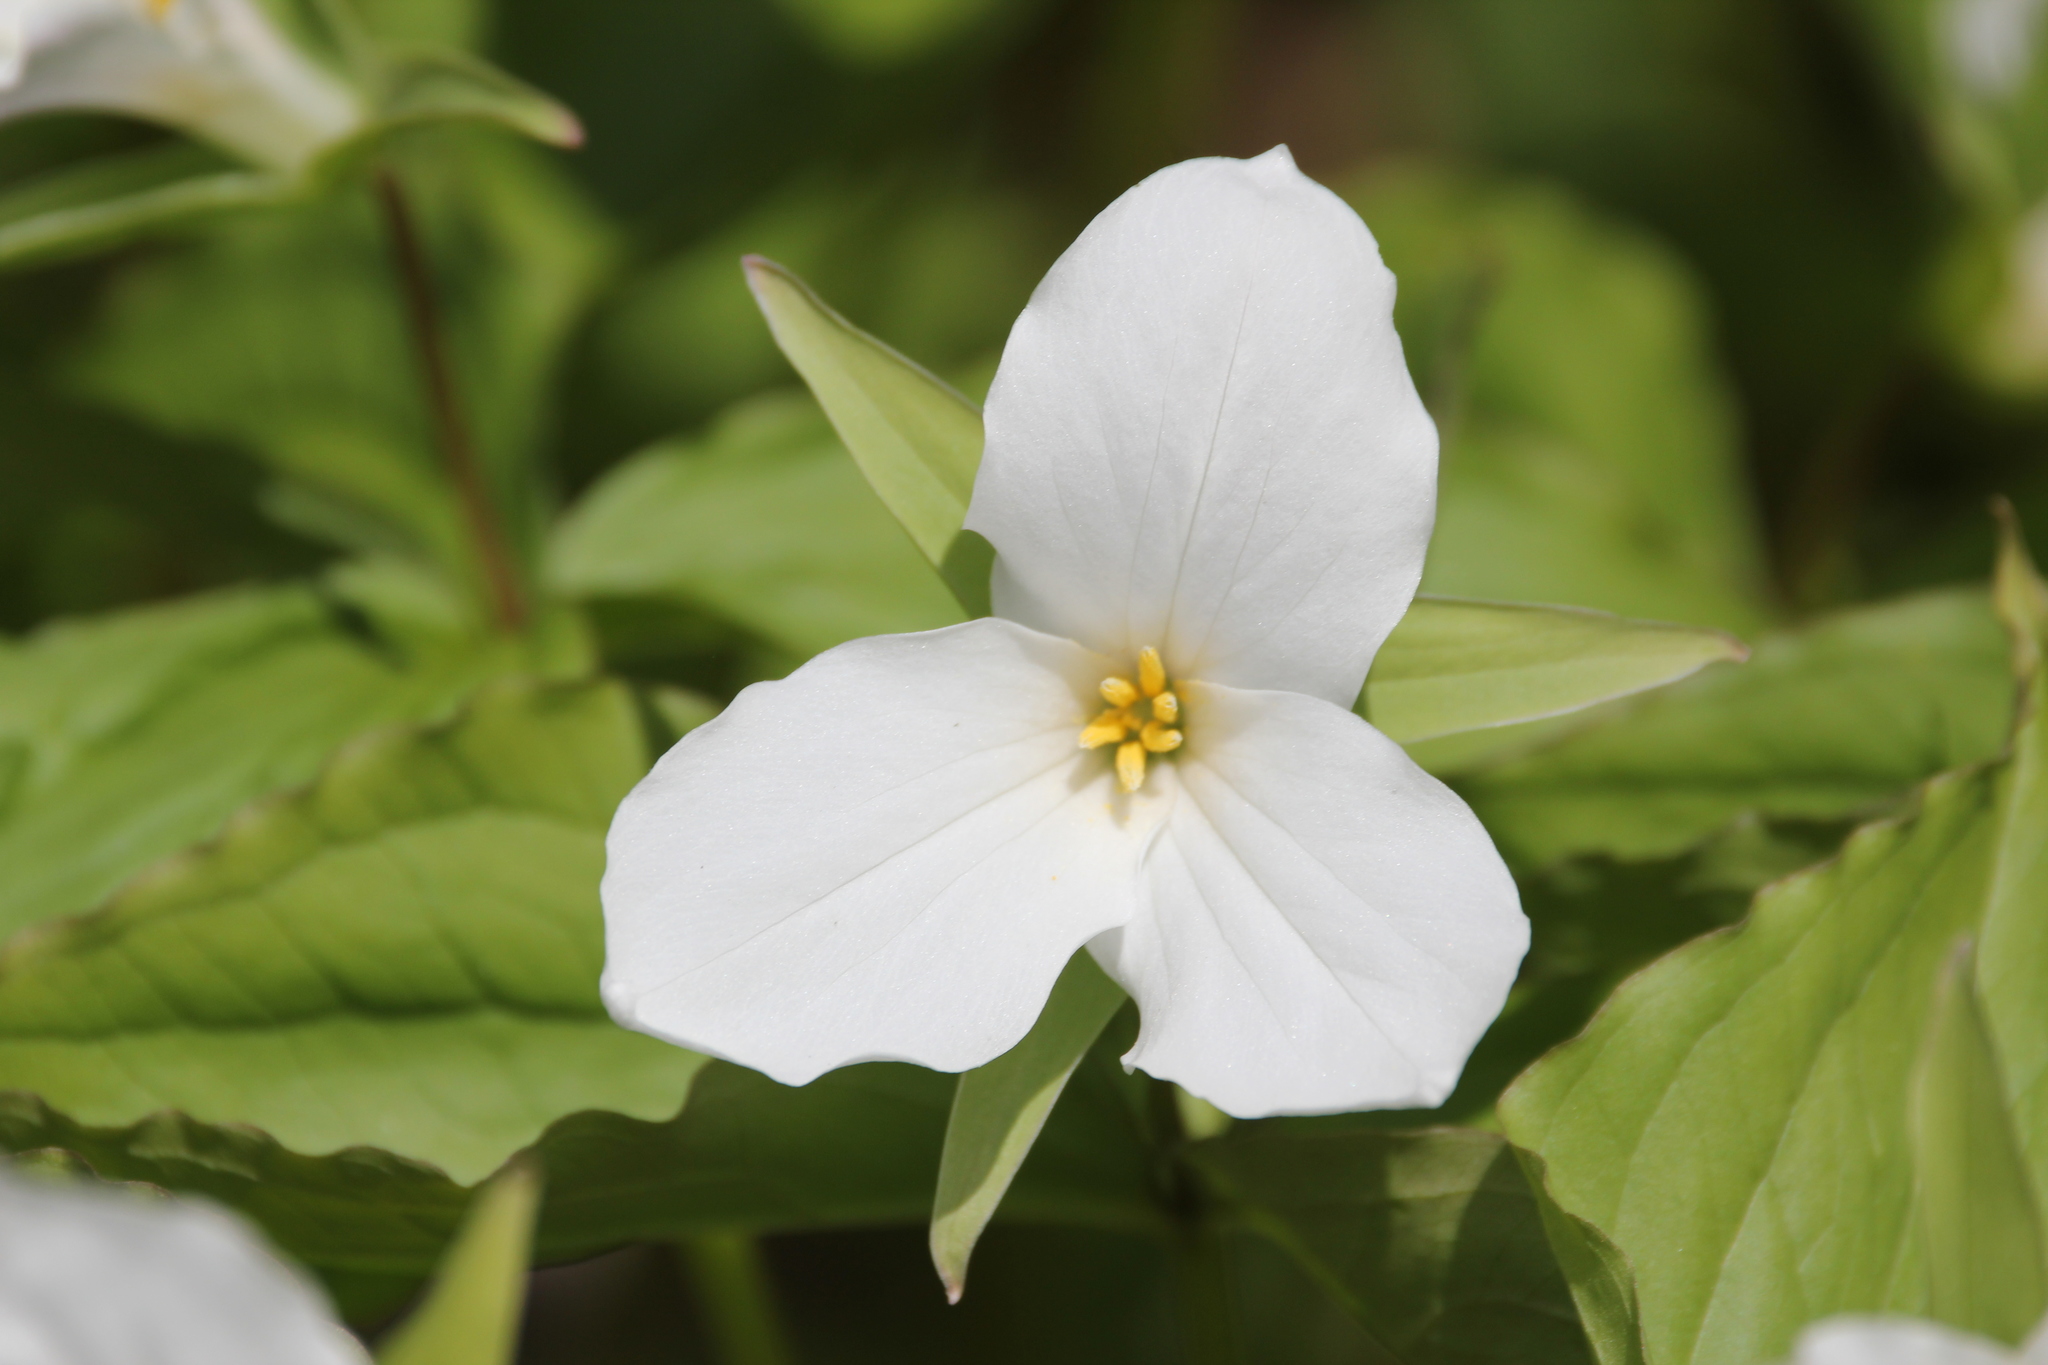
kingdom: Plantae
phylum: Tracheophyta
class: Liliopsida
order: Liliales
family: Melanthiaceae
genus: Trillium
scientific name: Trillium grandiflorum
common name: Great white trillium
